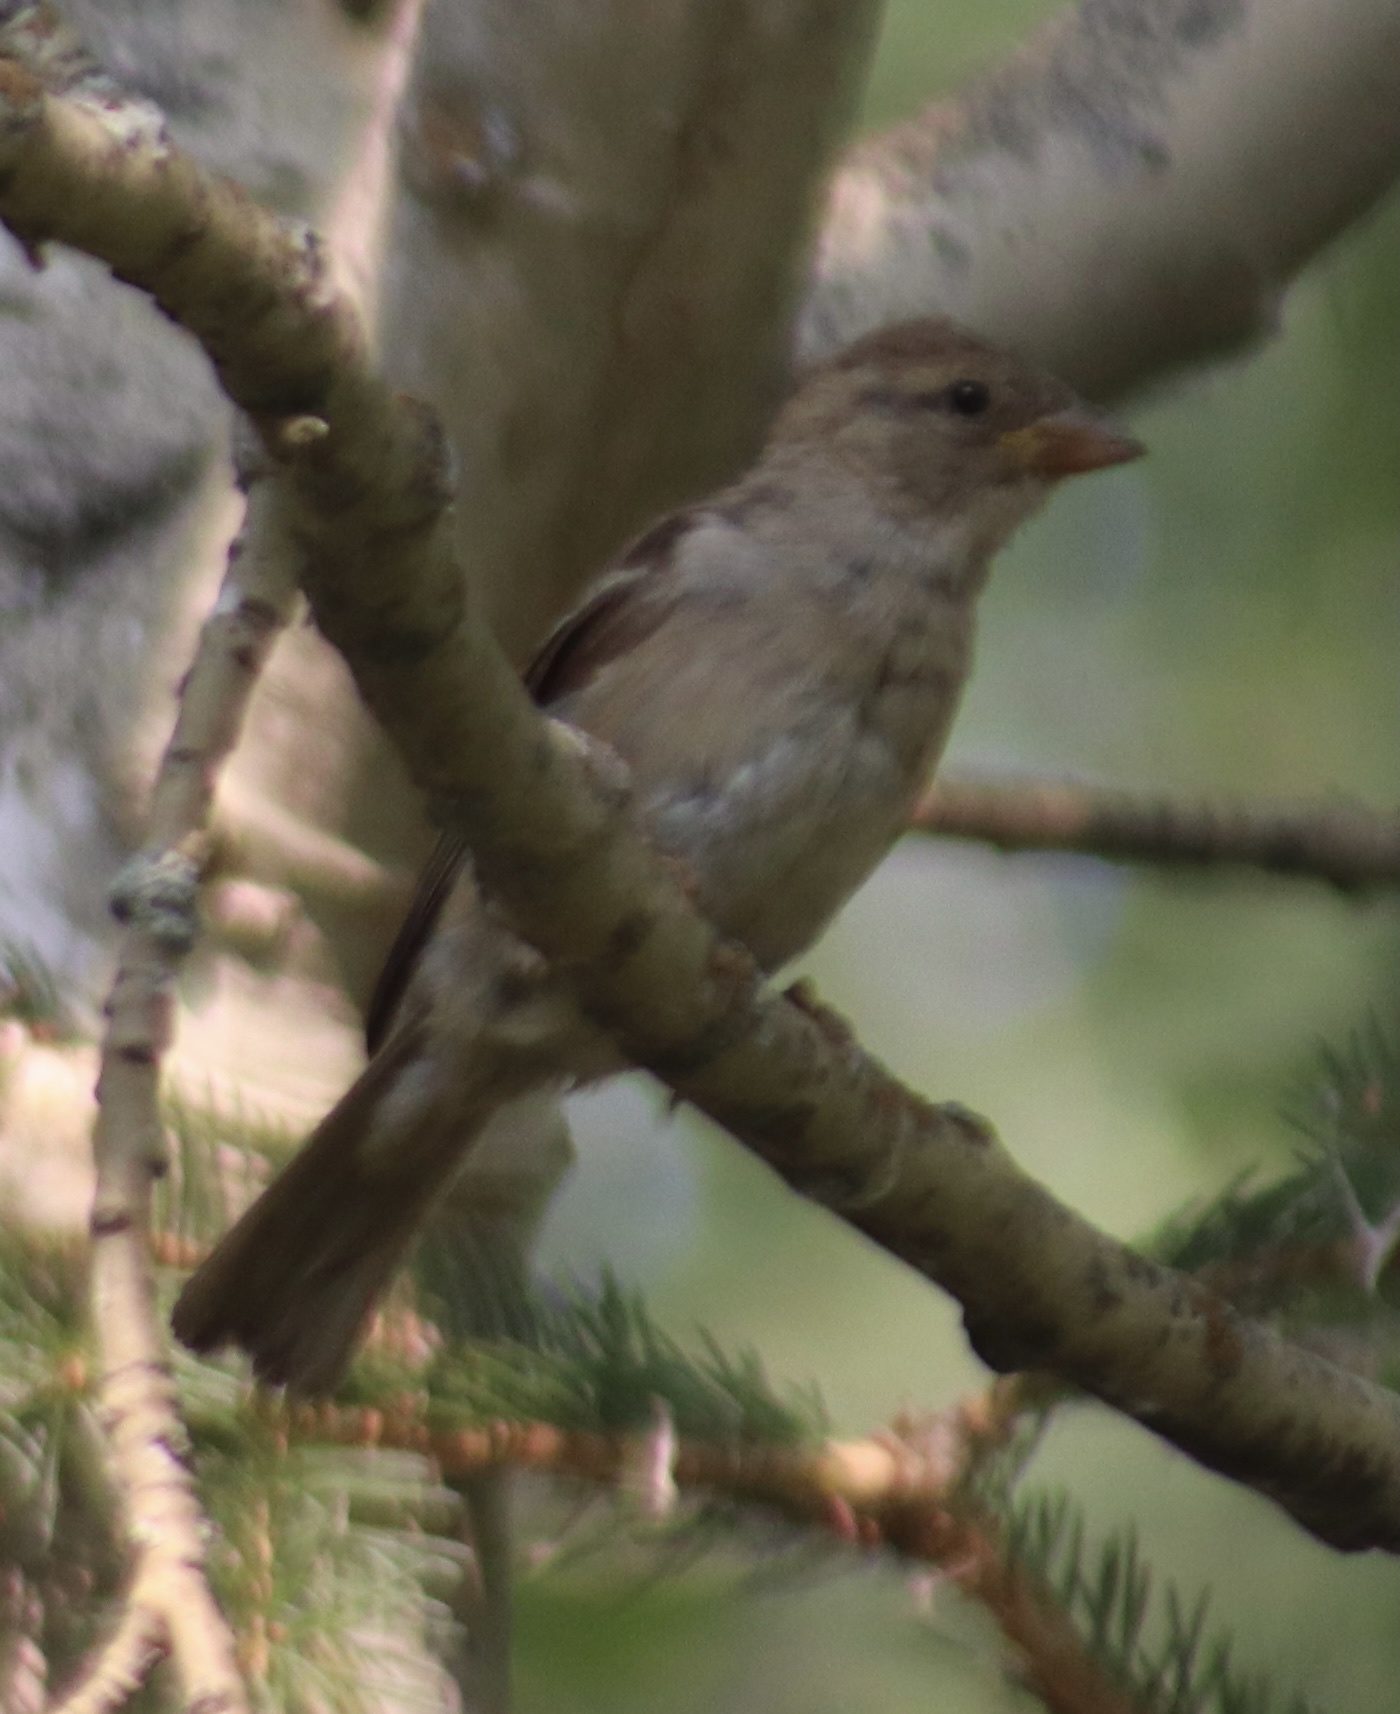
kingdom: Animalia
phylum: Chordata
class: Aves
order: Passeriformes
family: Passeridae
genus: Passer
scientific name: Passer domesticus
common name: House sparrow
